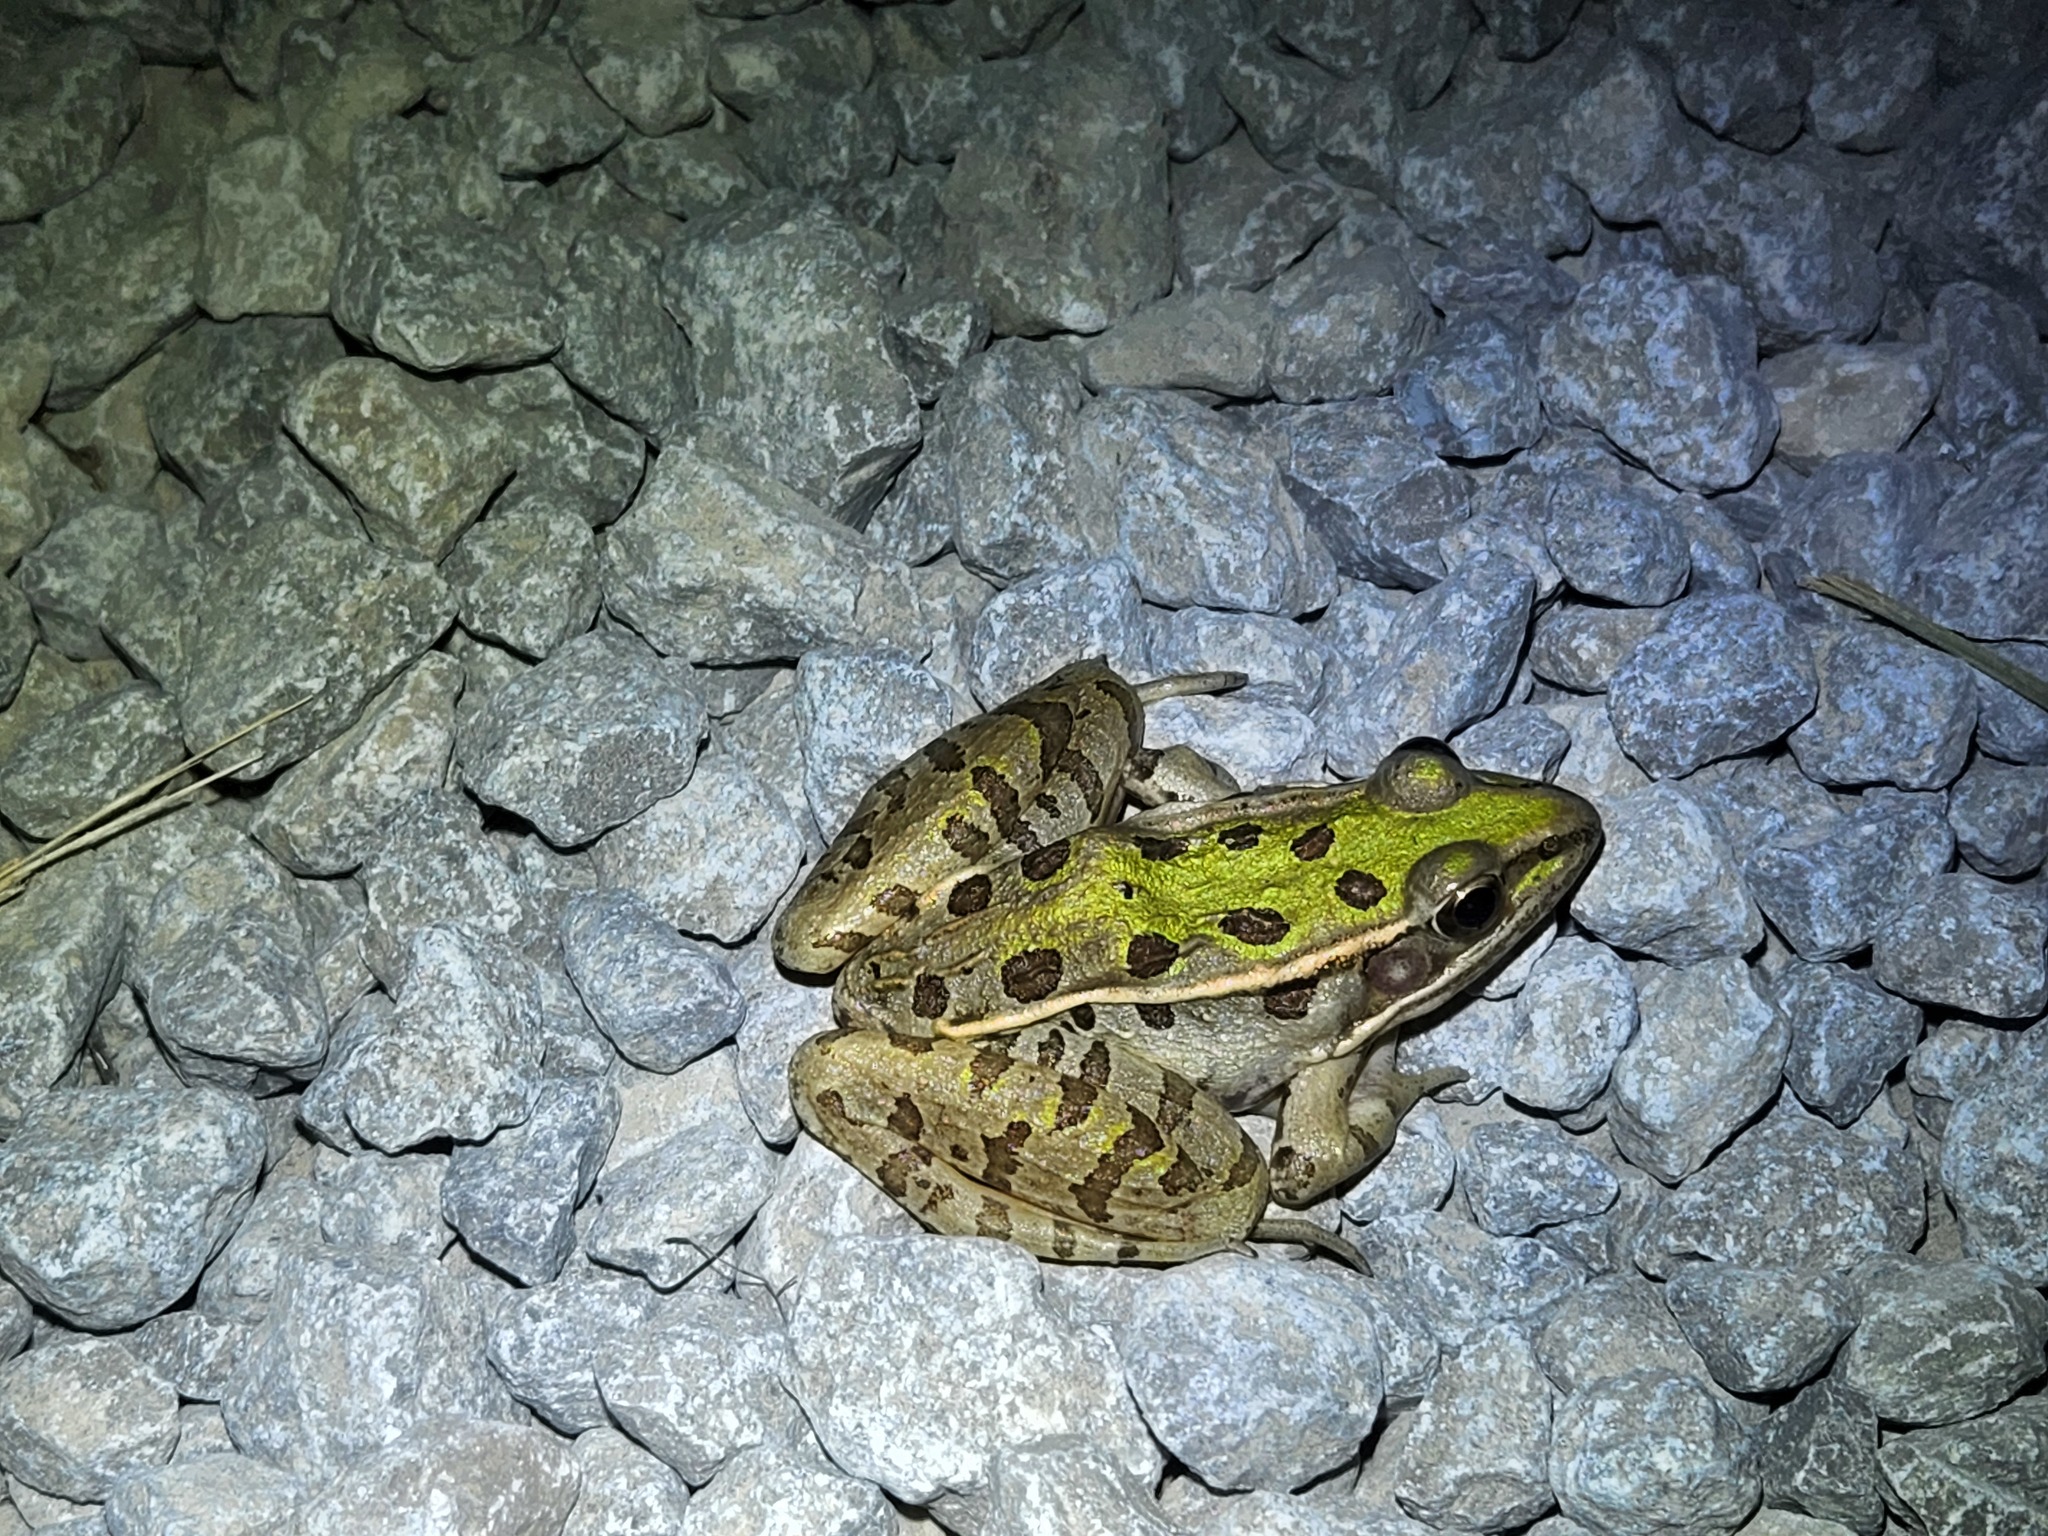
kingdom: Animalia
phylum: Chordata
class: Amphibia
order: Anura
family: Ranidae
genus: Lithobates
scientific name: Lithobates sphenocephalus
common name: Southern leopard frog
